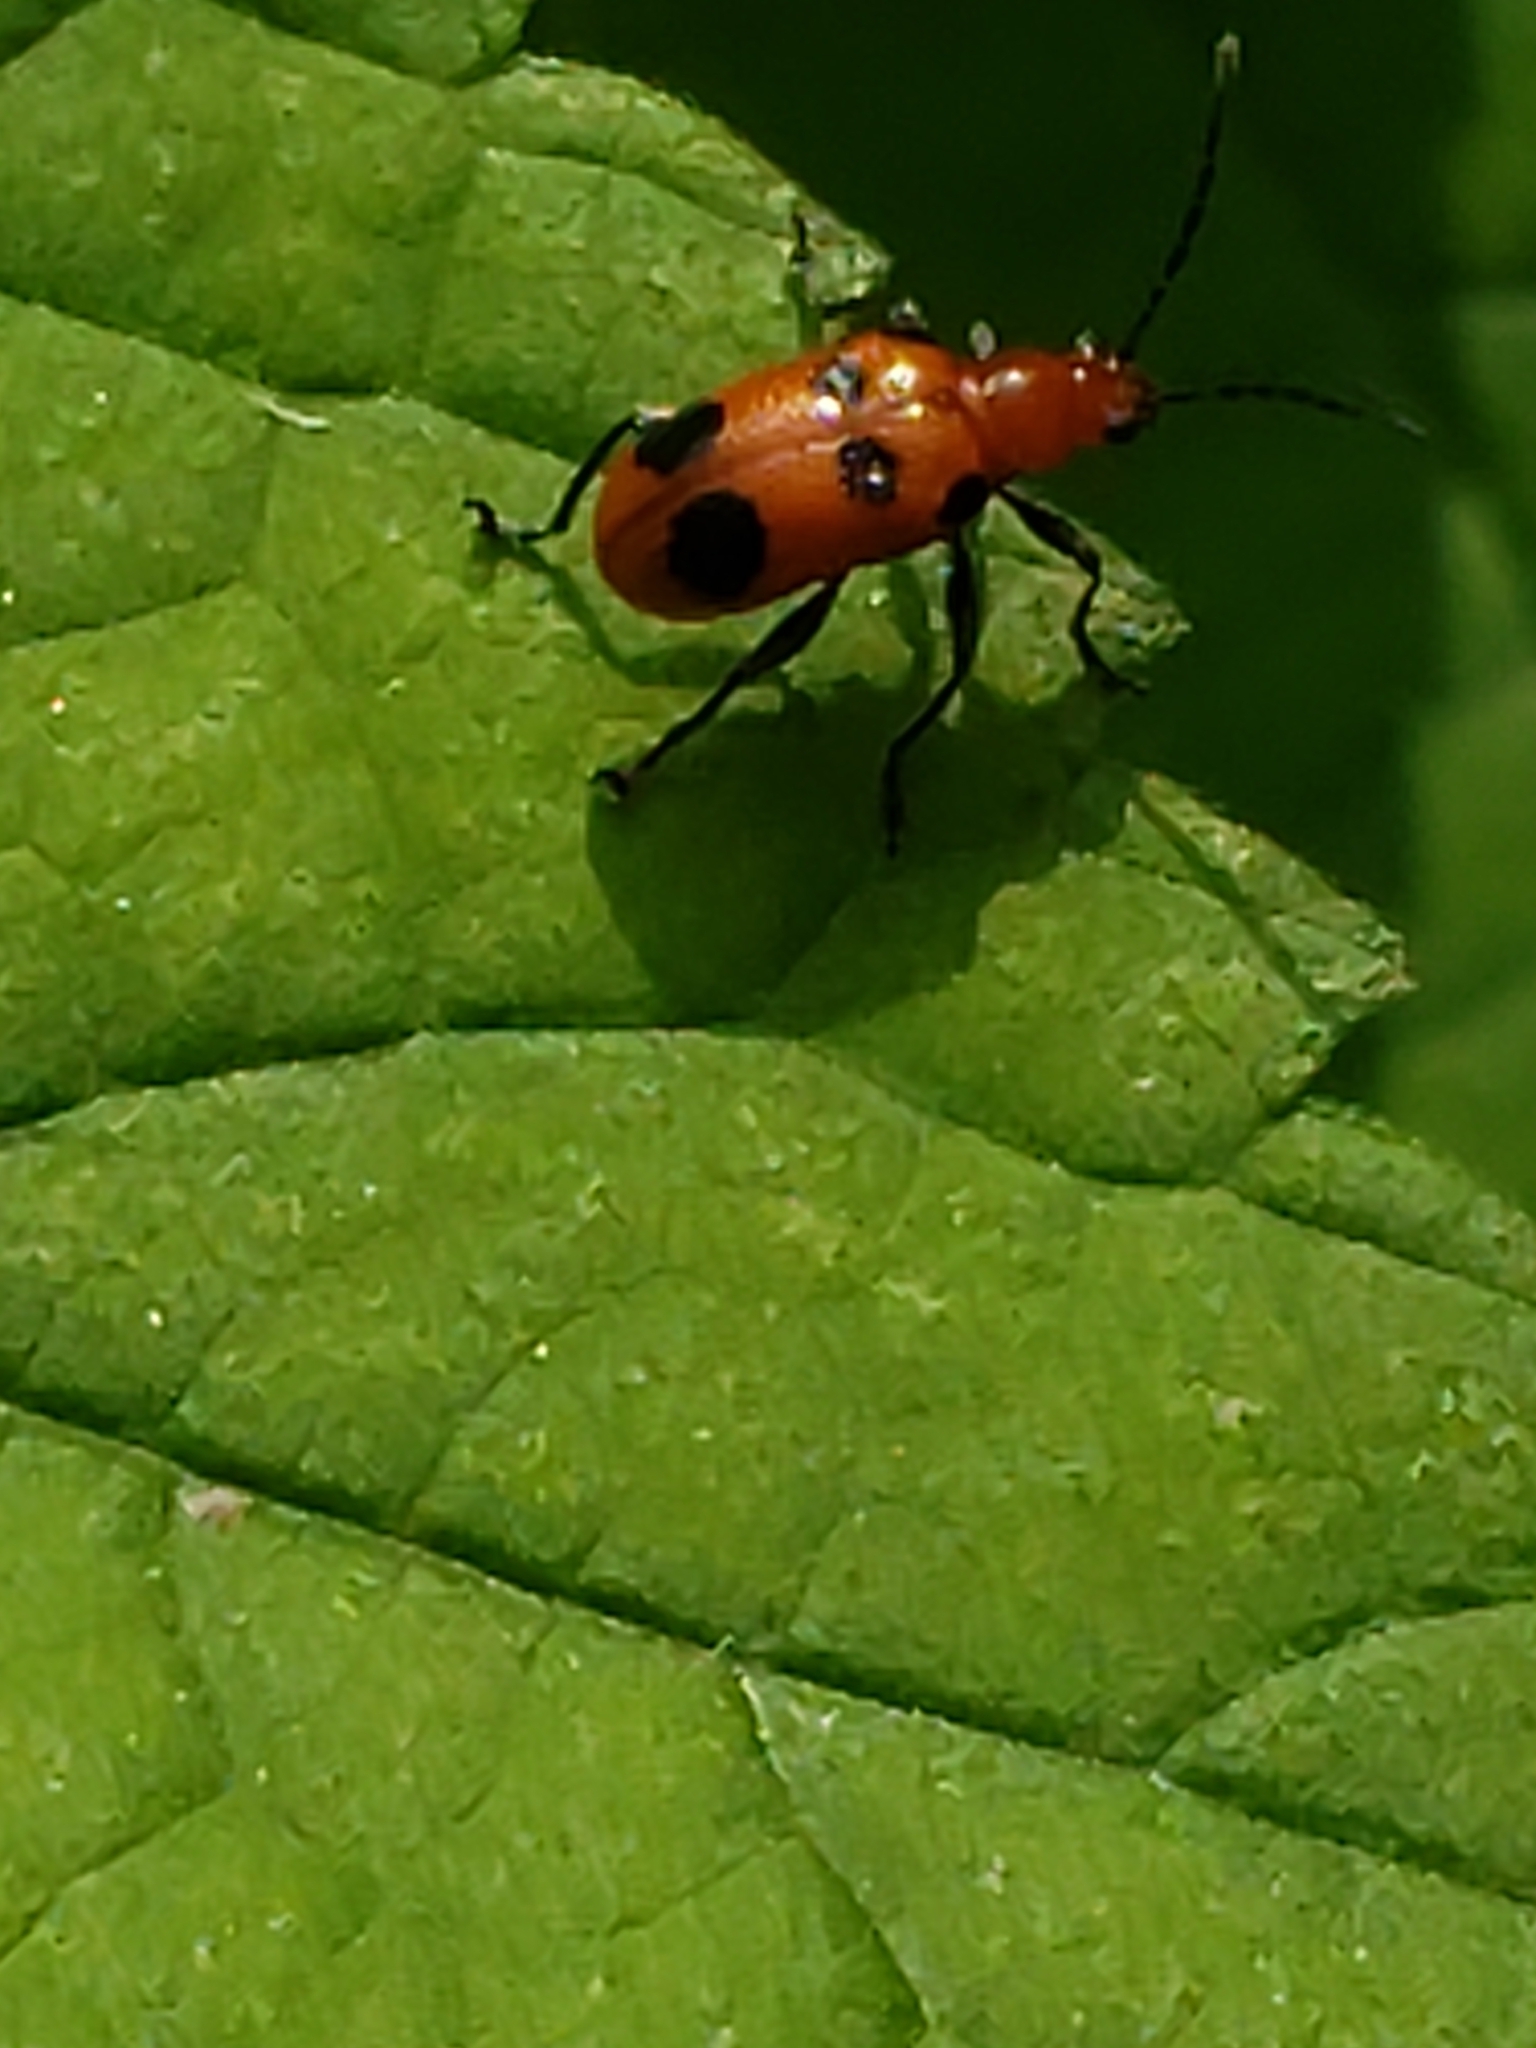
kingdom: Animalia
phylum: Arthropoda
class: Insecta
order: Coleoptera
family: Chrysomelidae
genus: Neolema
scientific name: Neolema sexpunctata
